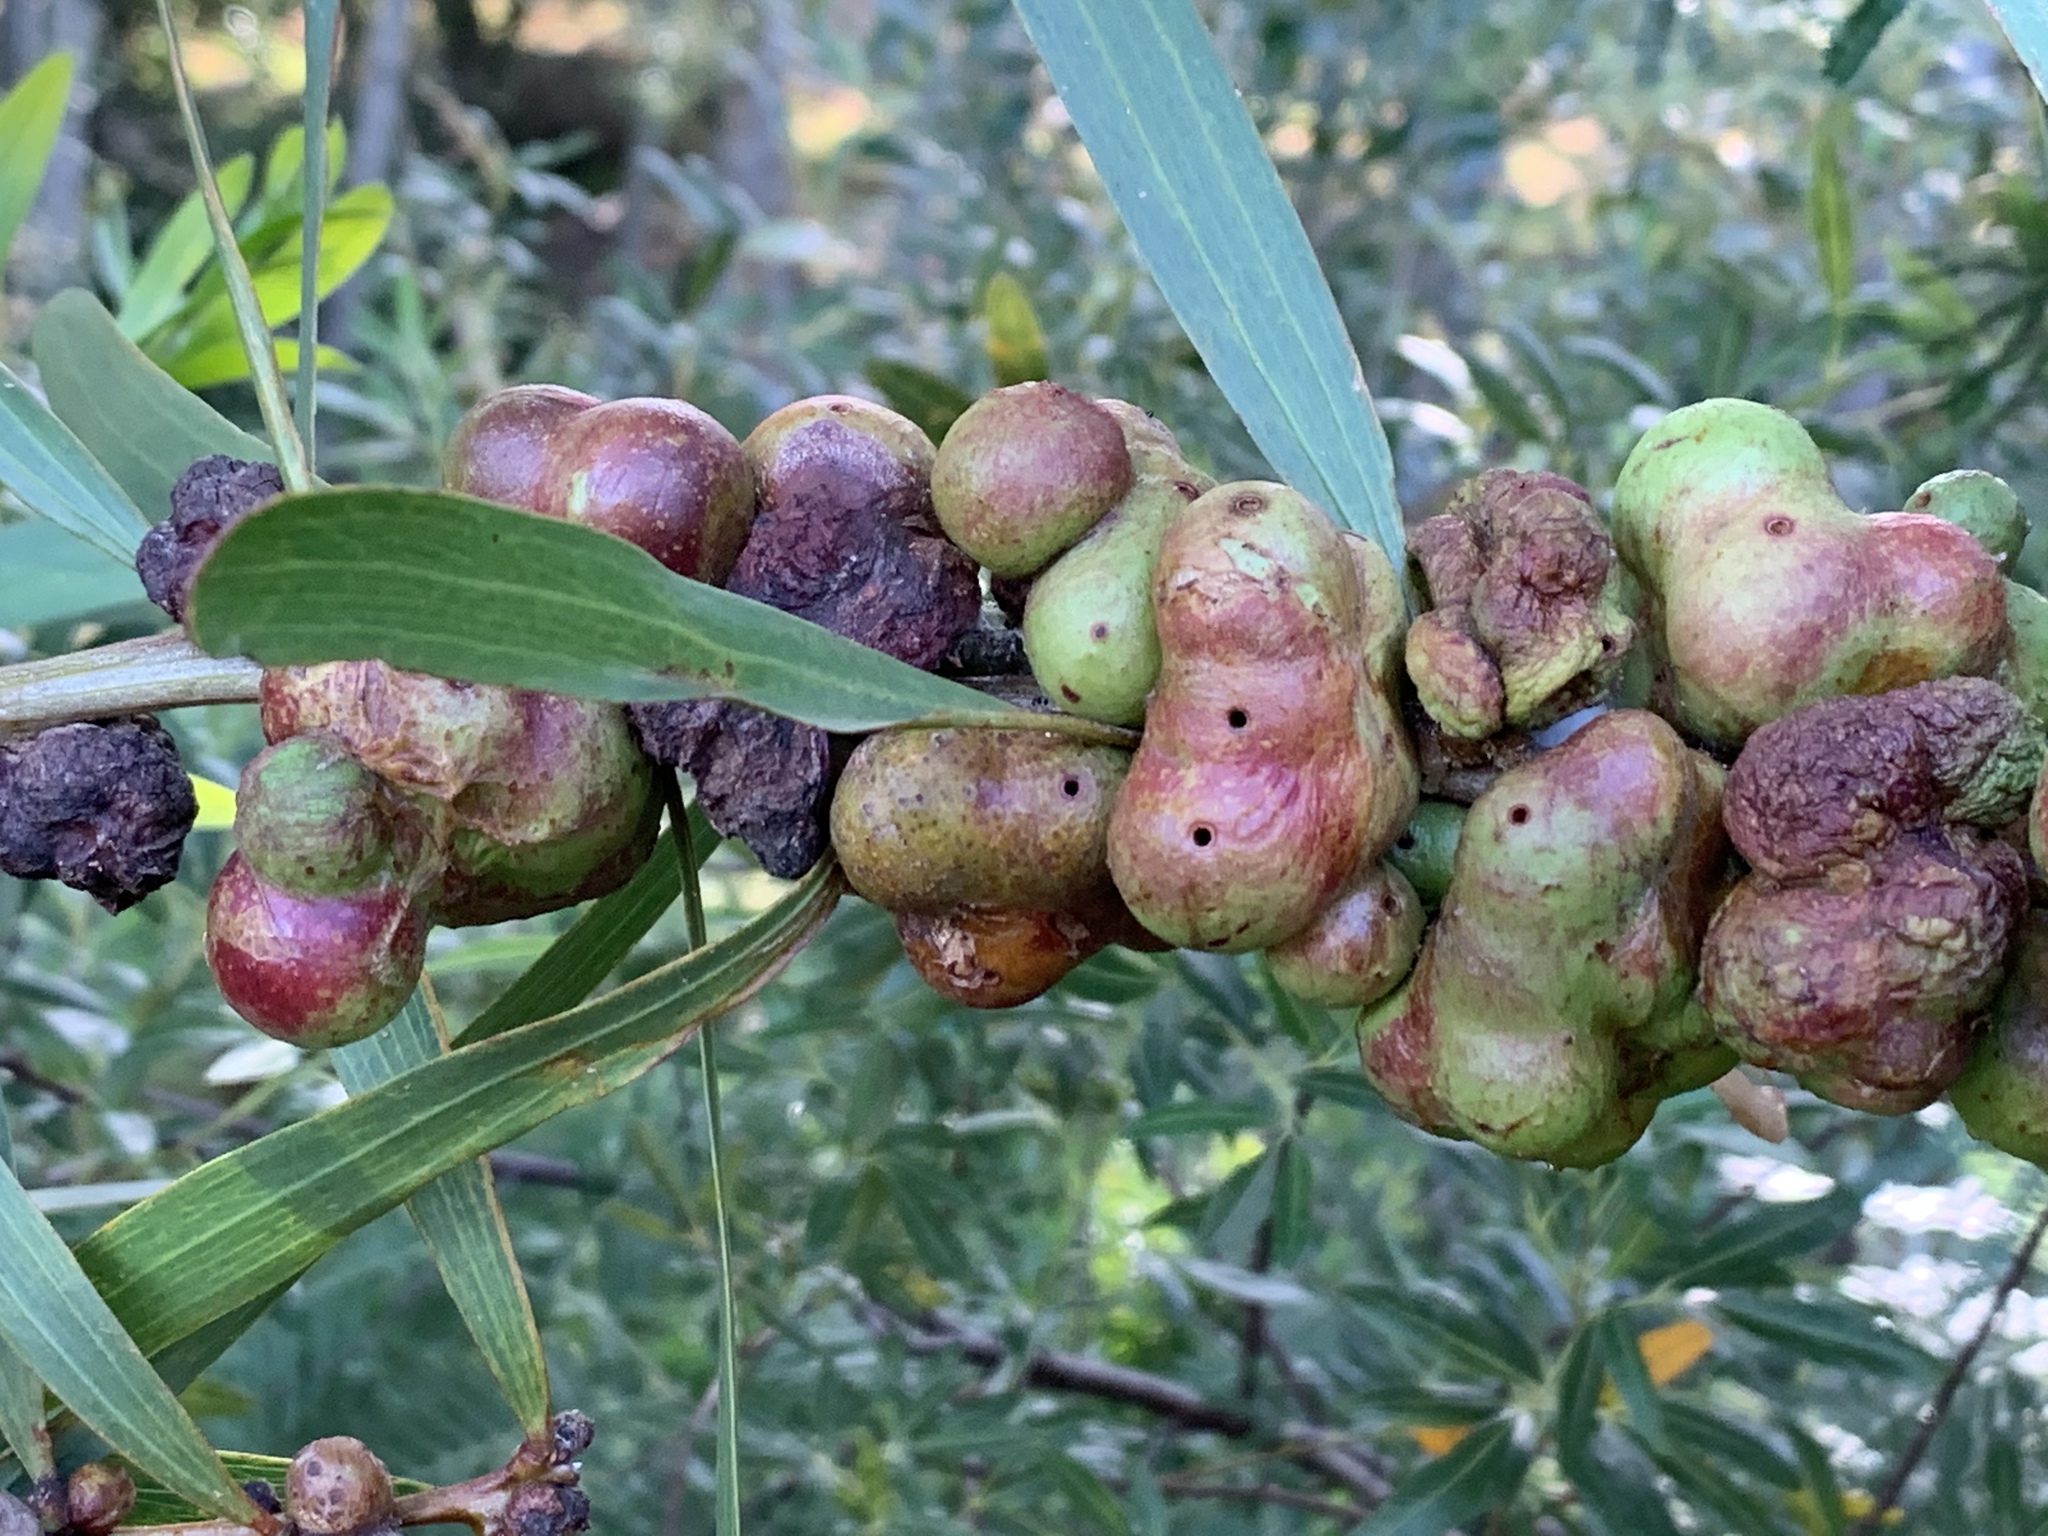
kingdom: Animalia
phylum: Arthropoda
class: Insecta
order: Hymenoptera
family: Pteromalidae
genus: Trichilogaster
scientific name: Trichilogaster acaciaelongifoliae
